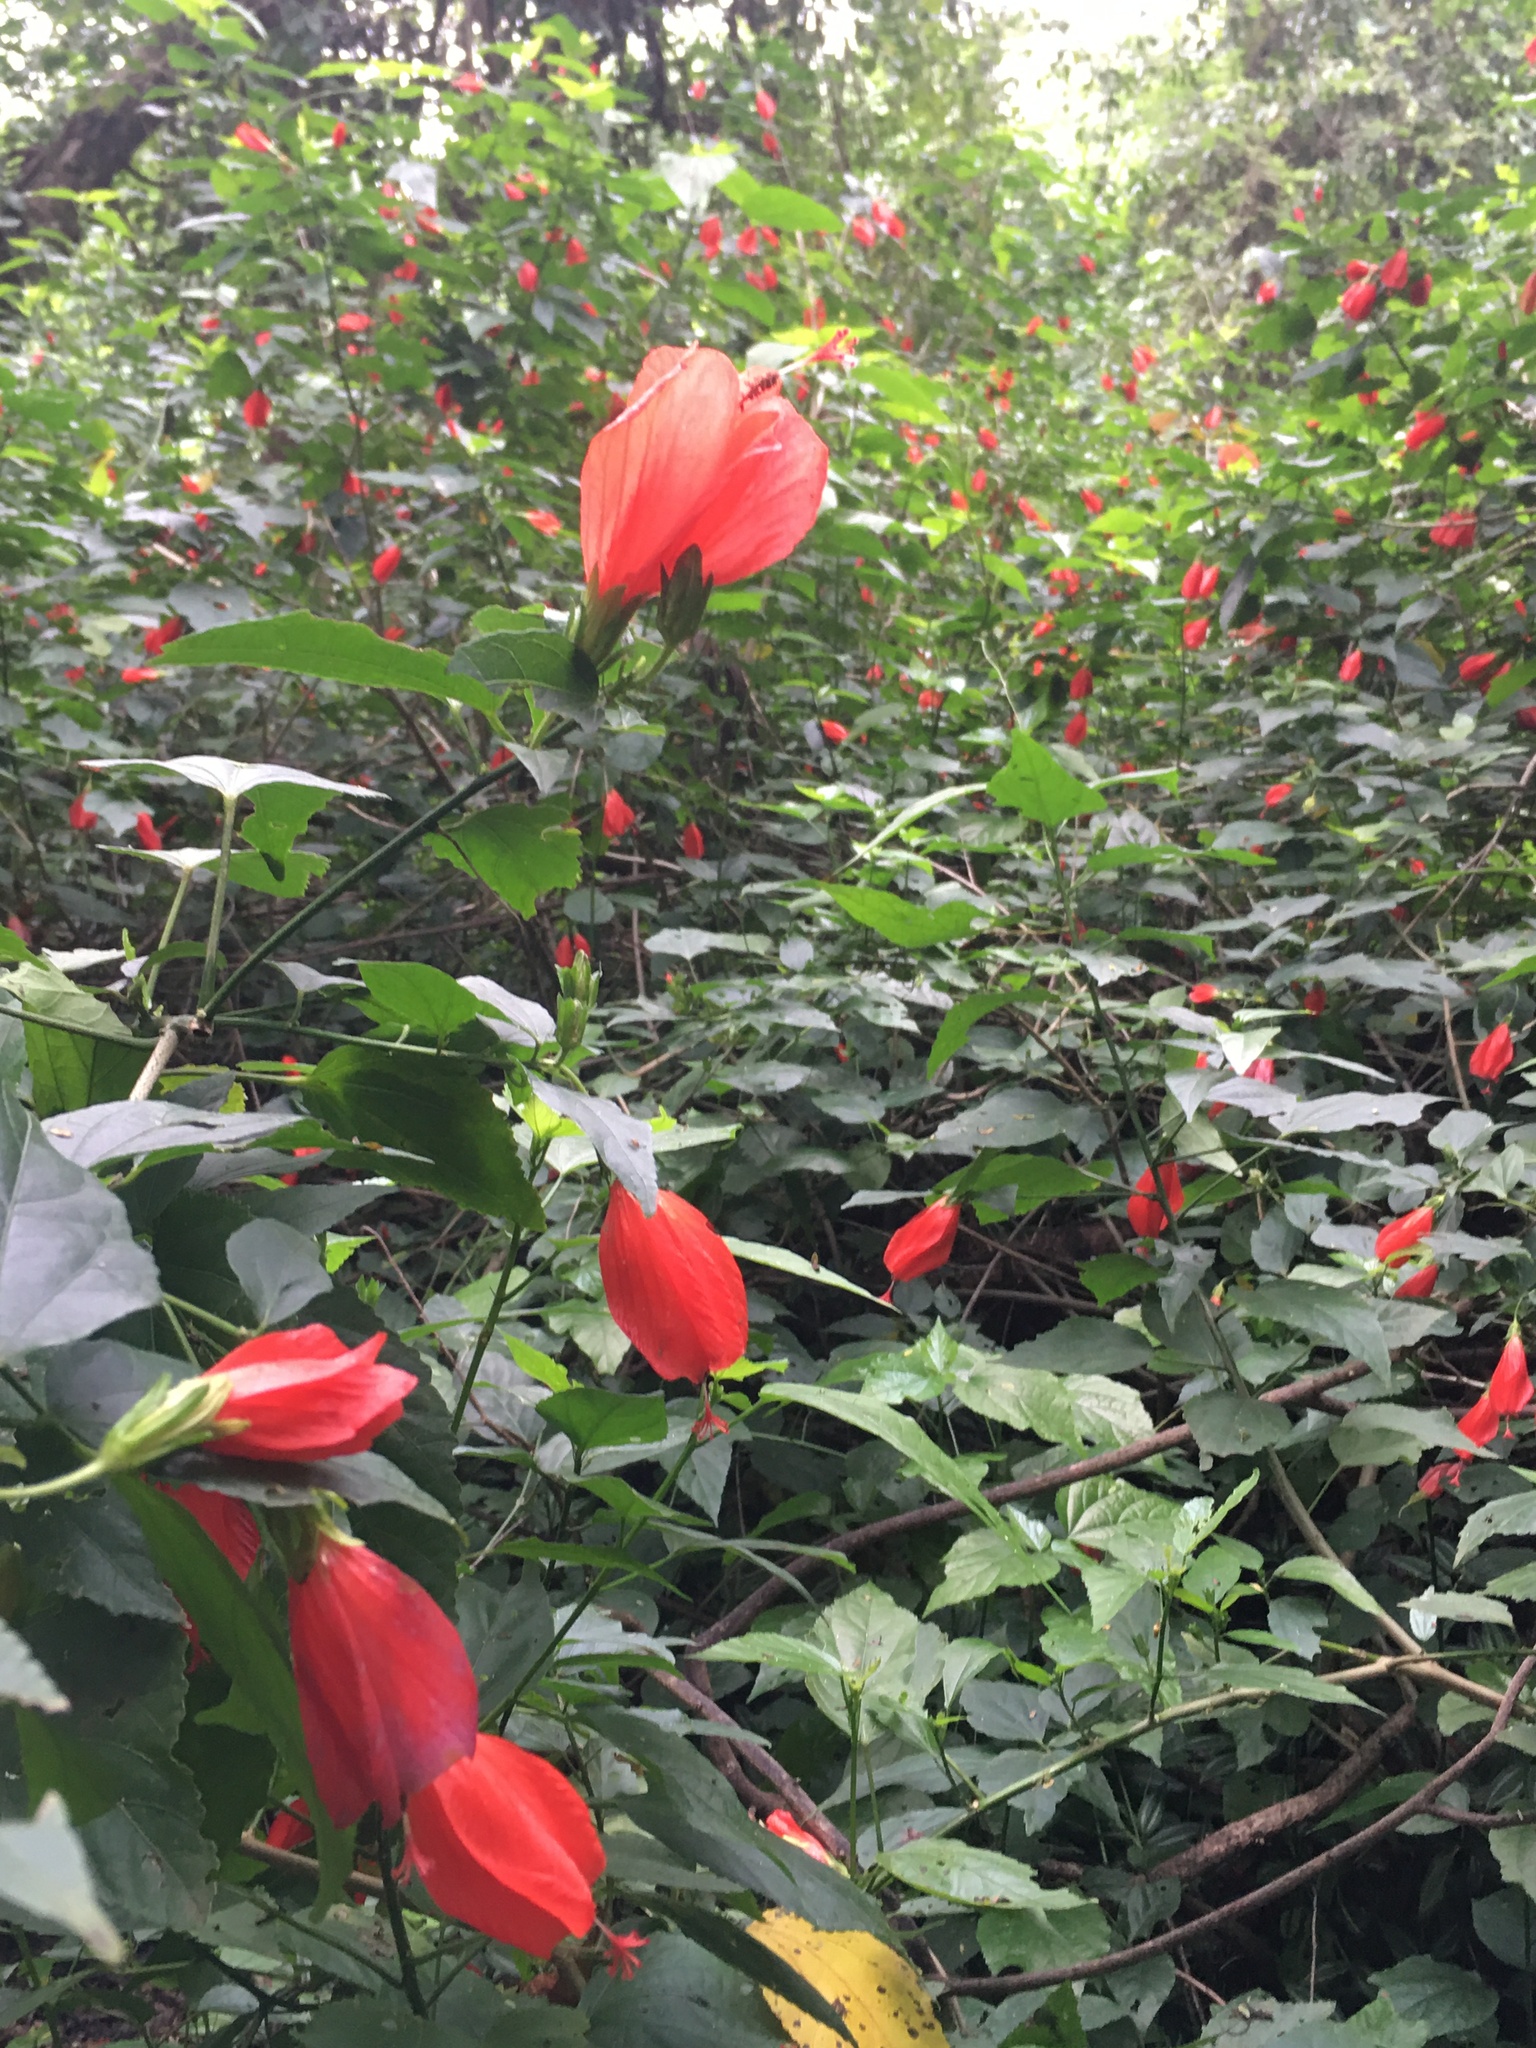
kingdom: Plantae
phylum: Tracheophyta
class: Magnoliopsida
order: Malvales
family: Malvaceae
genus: Malvaviscus
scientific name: Malvaviscus penduliflorus
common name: Mazapan
